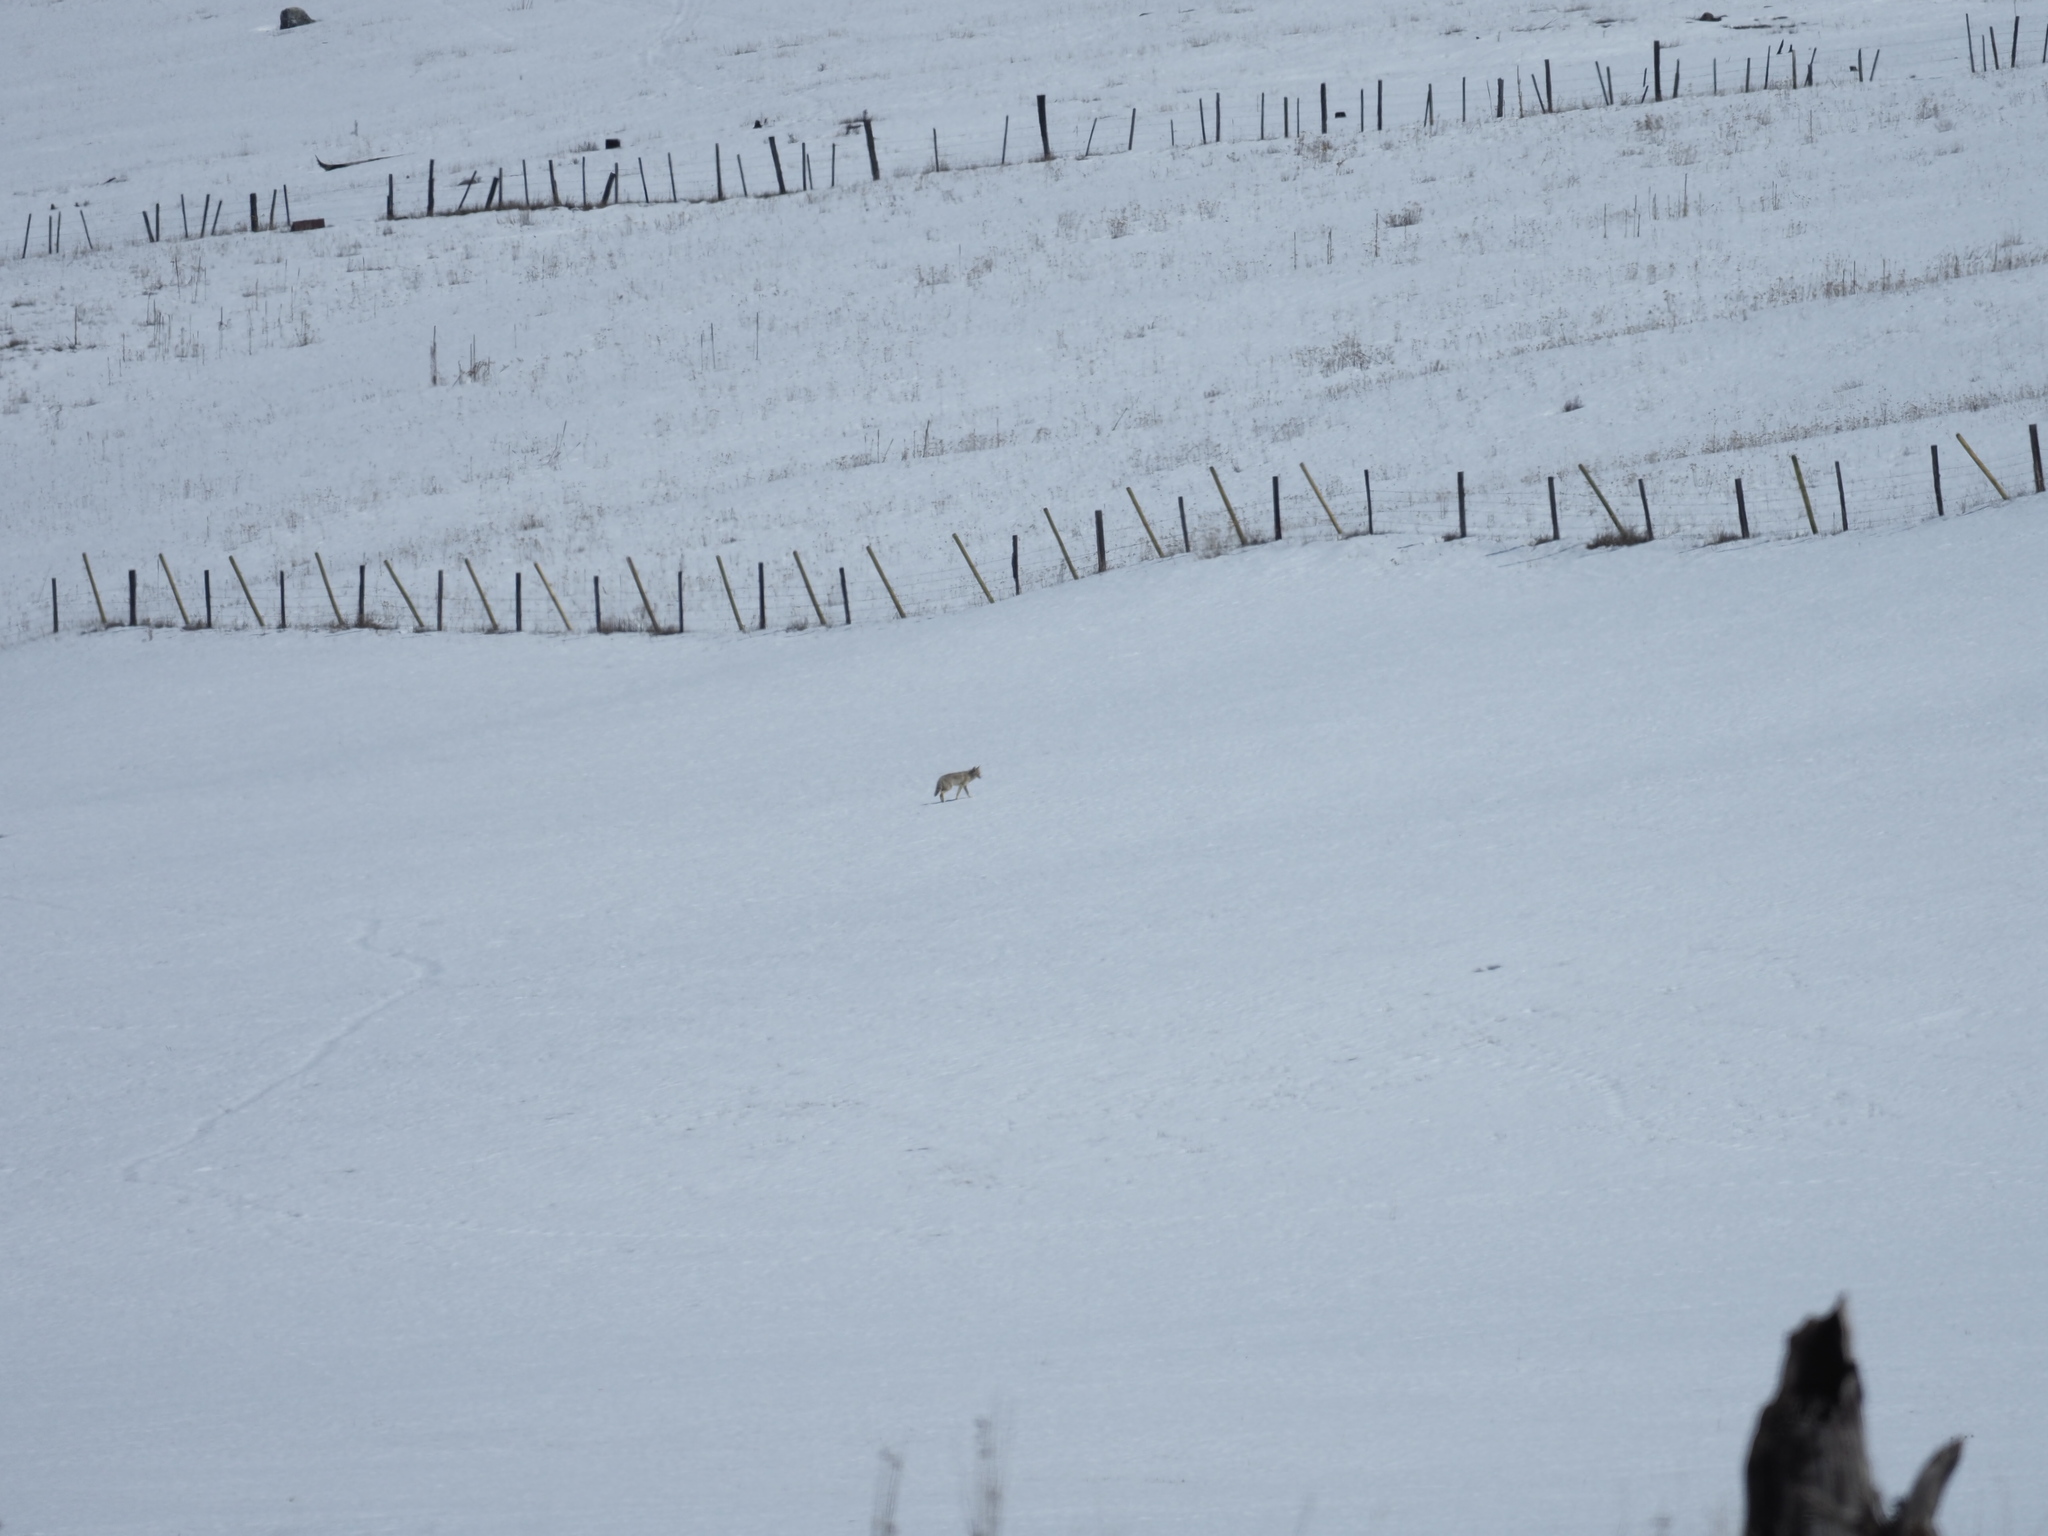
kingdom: Animalia
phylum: Chordata
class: Mammalia
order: Carnivora
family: Canidae
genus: Canis
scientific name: Canis latrans
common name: Coyote
